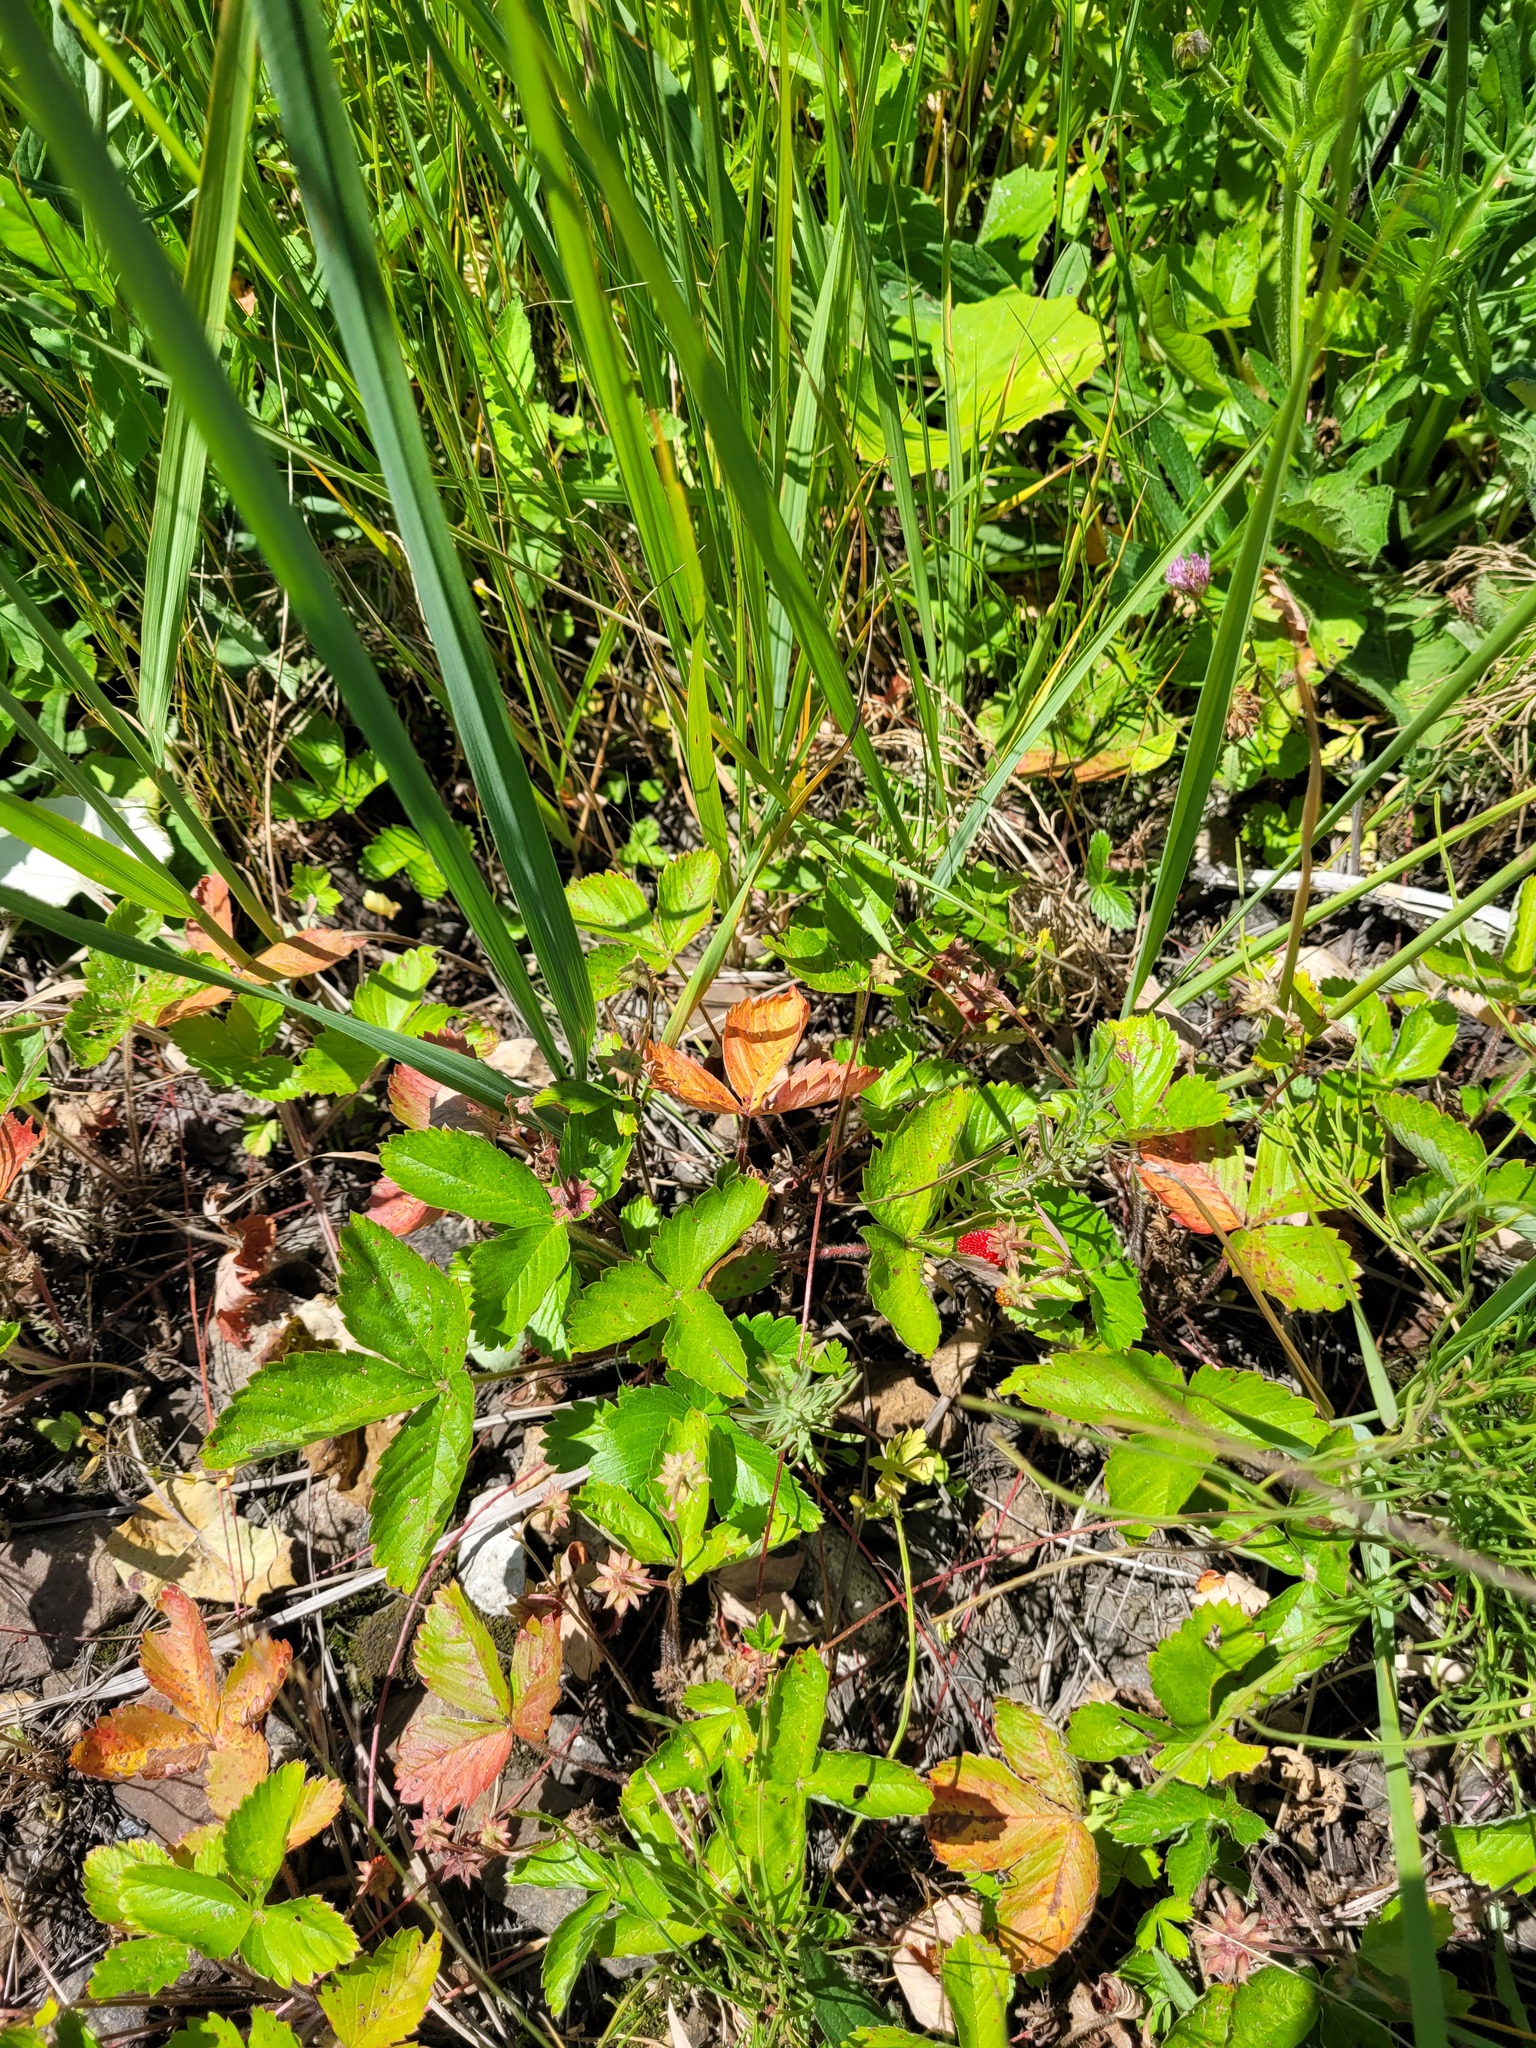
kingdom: Plantae
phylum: Tracheophyta
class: Magnoliopsida
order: Rosales
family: Rosaceae
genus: Fragaria
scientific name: Fragaria vesca
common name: Wild strawberry
